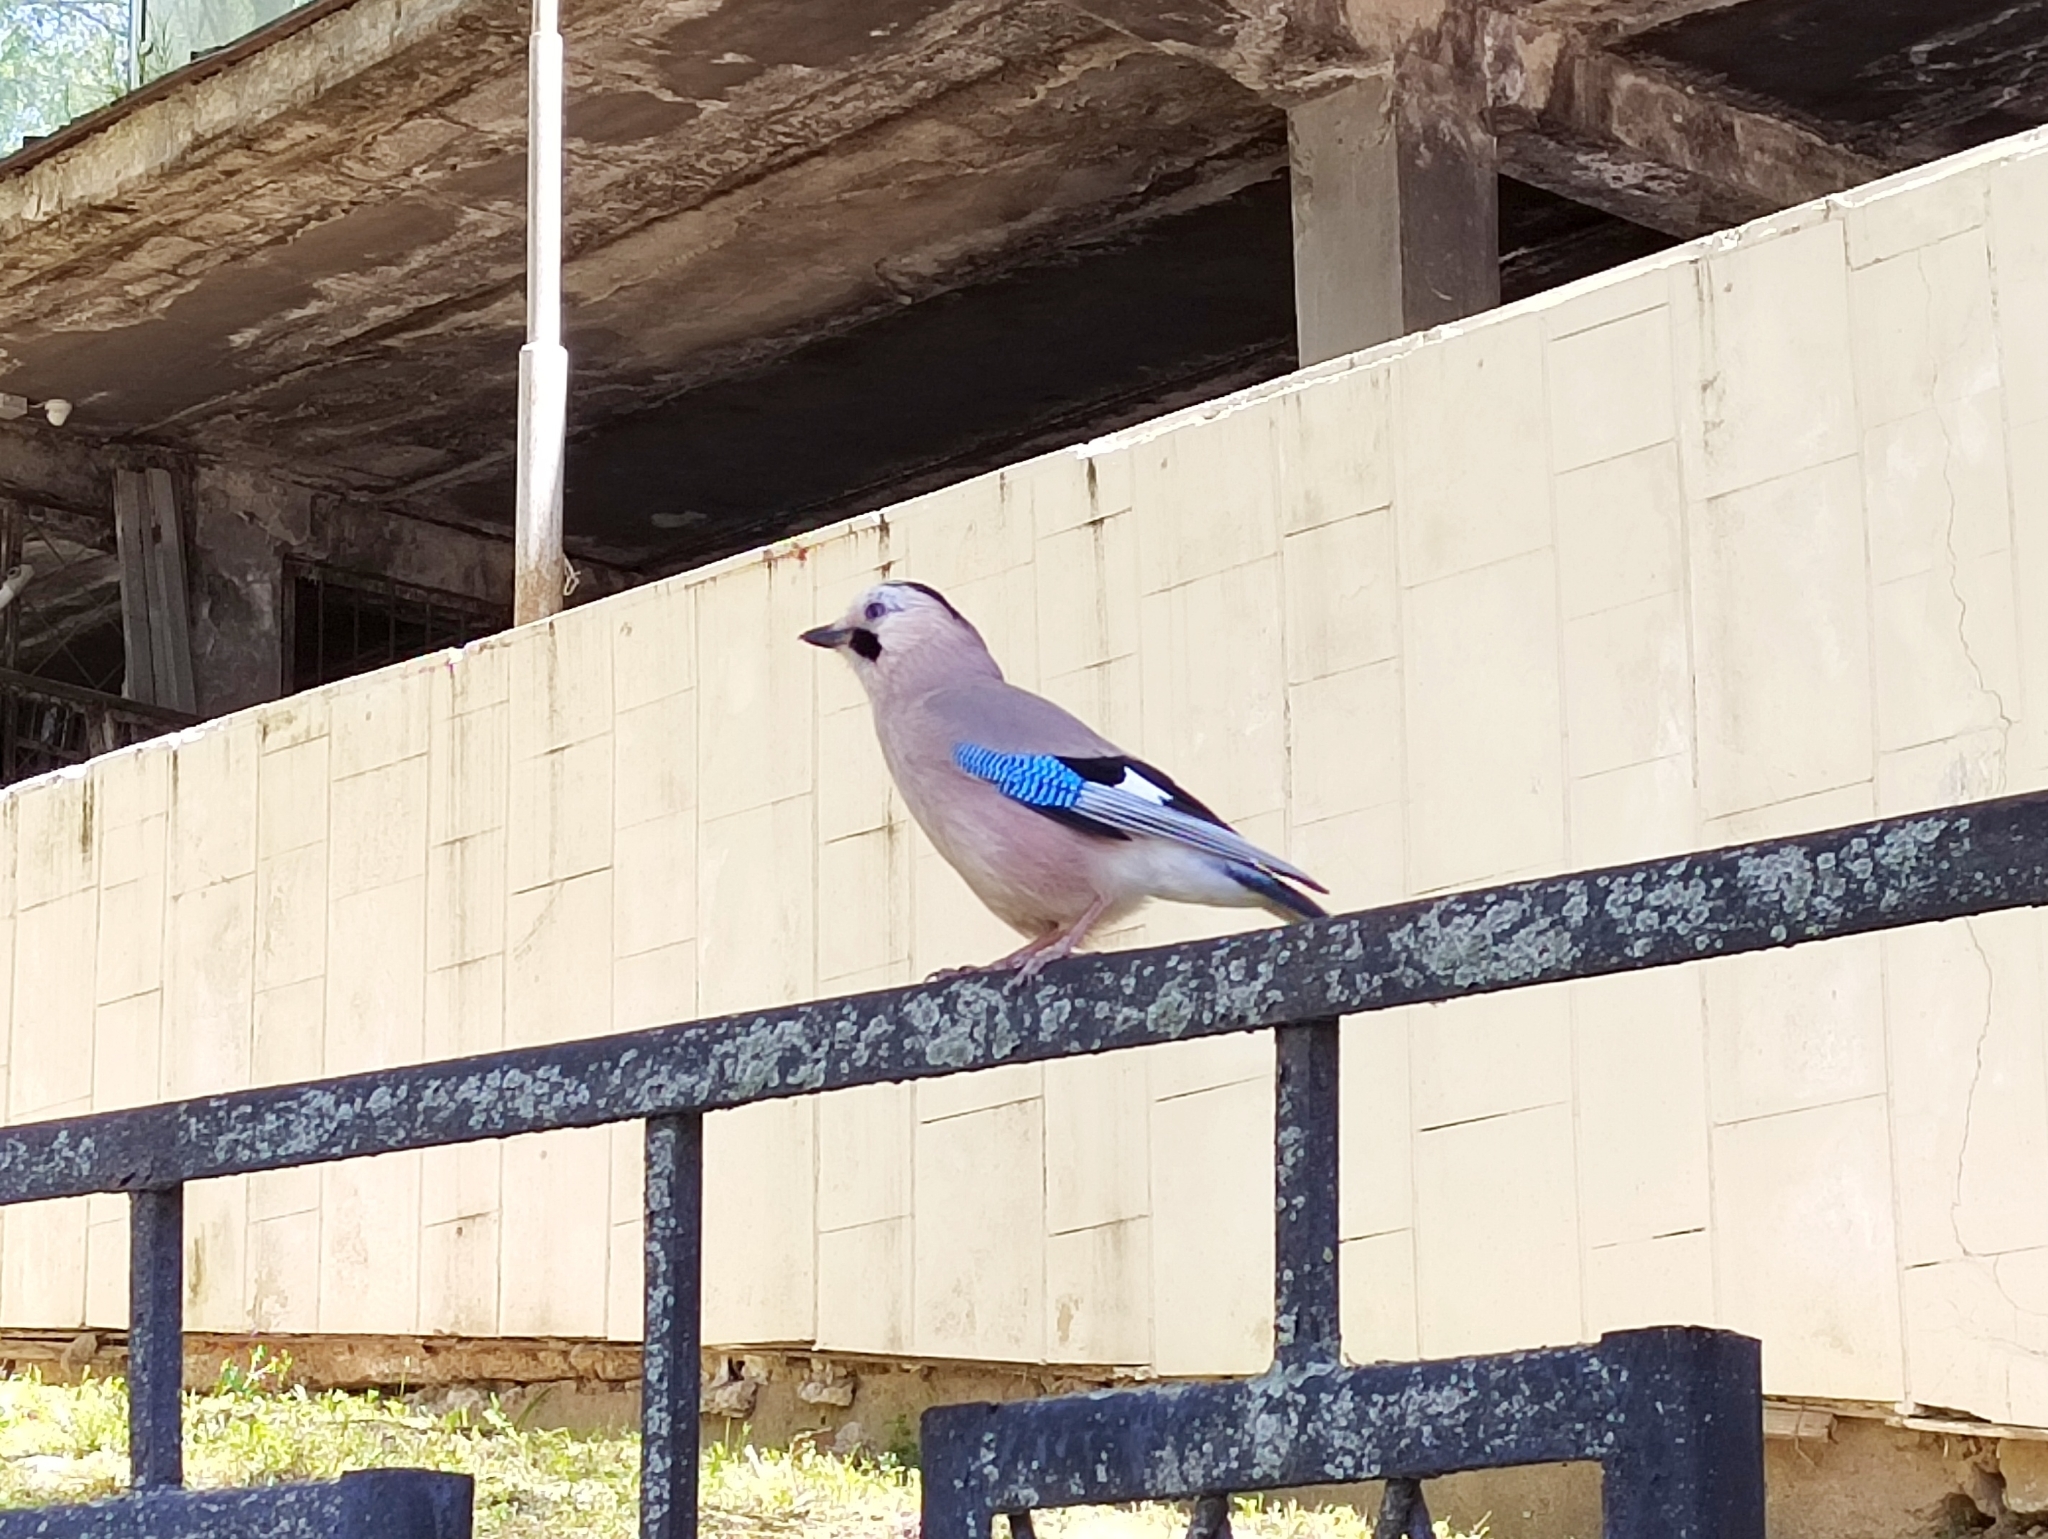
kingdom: Animalia
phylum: Chordata
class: Aves
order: Passeriformes
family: Corvidae
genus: Garrulus
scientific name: Garrulus glandarius
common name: Eurasian jay
